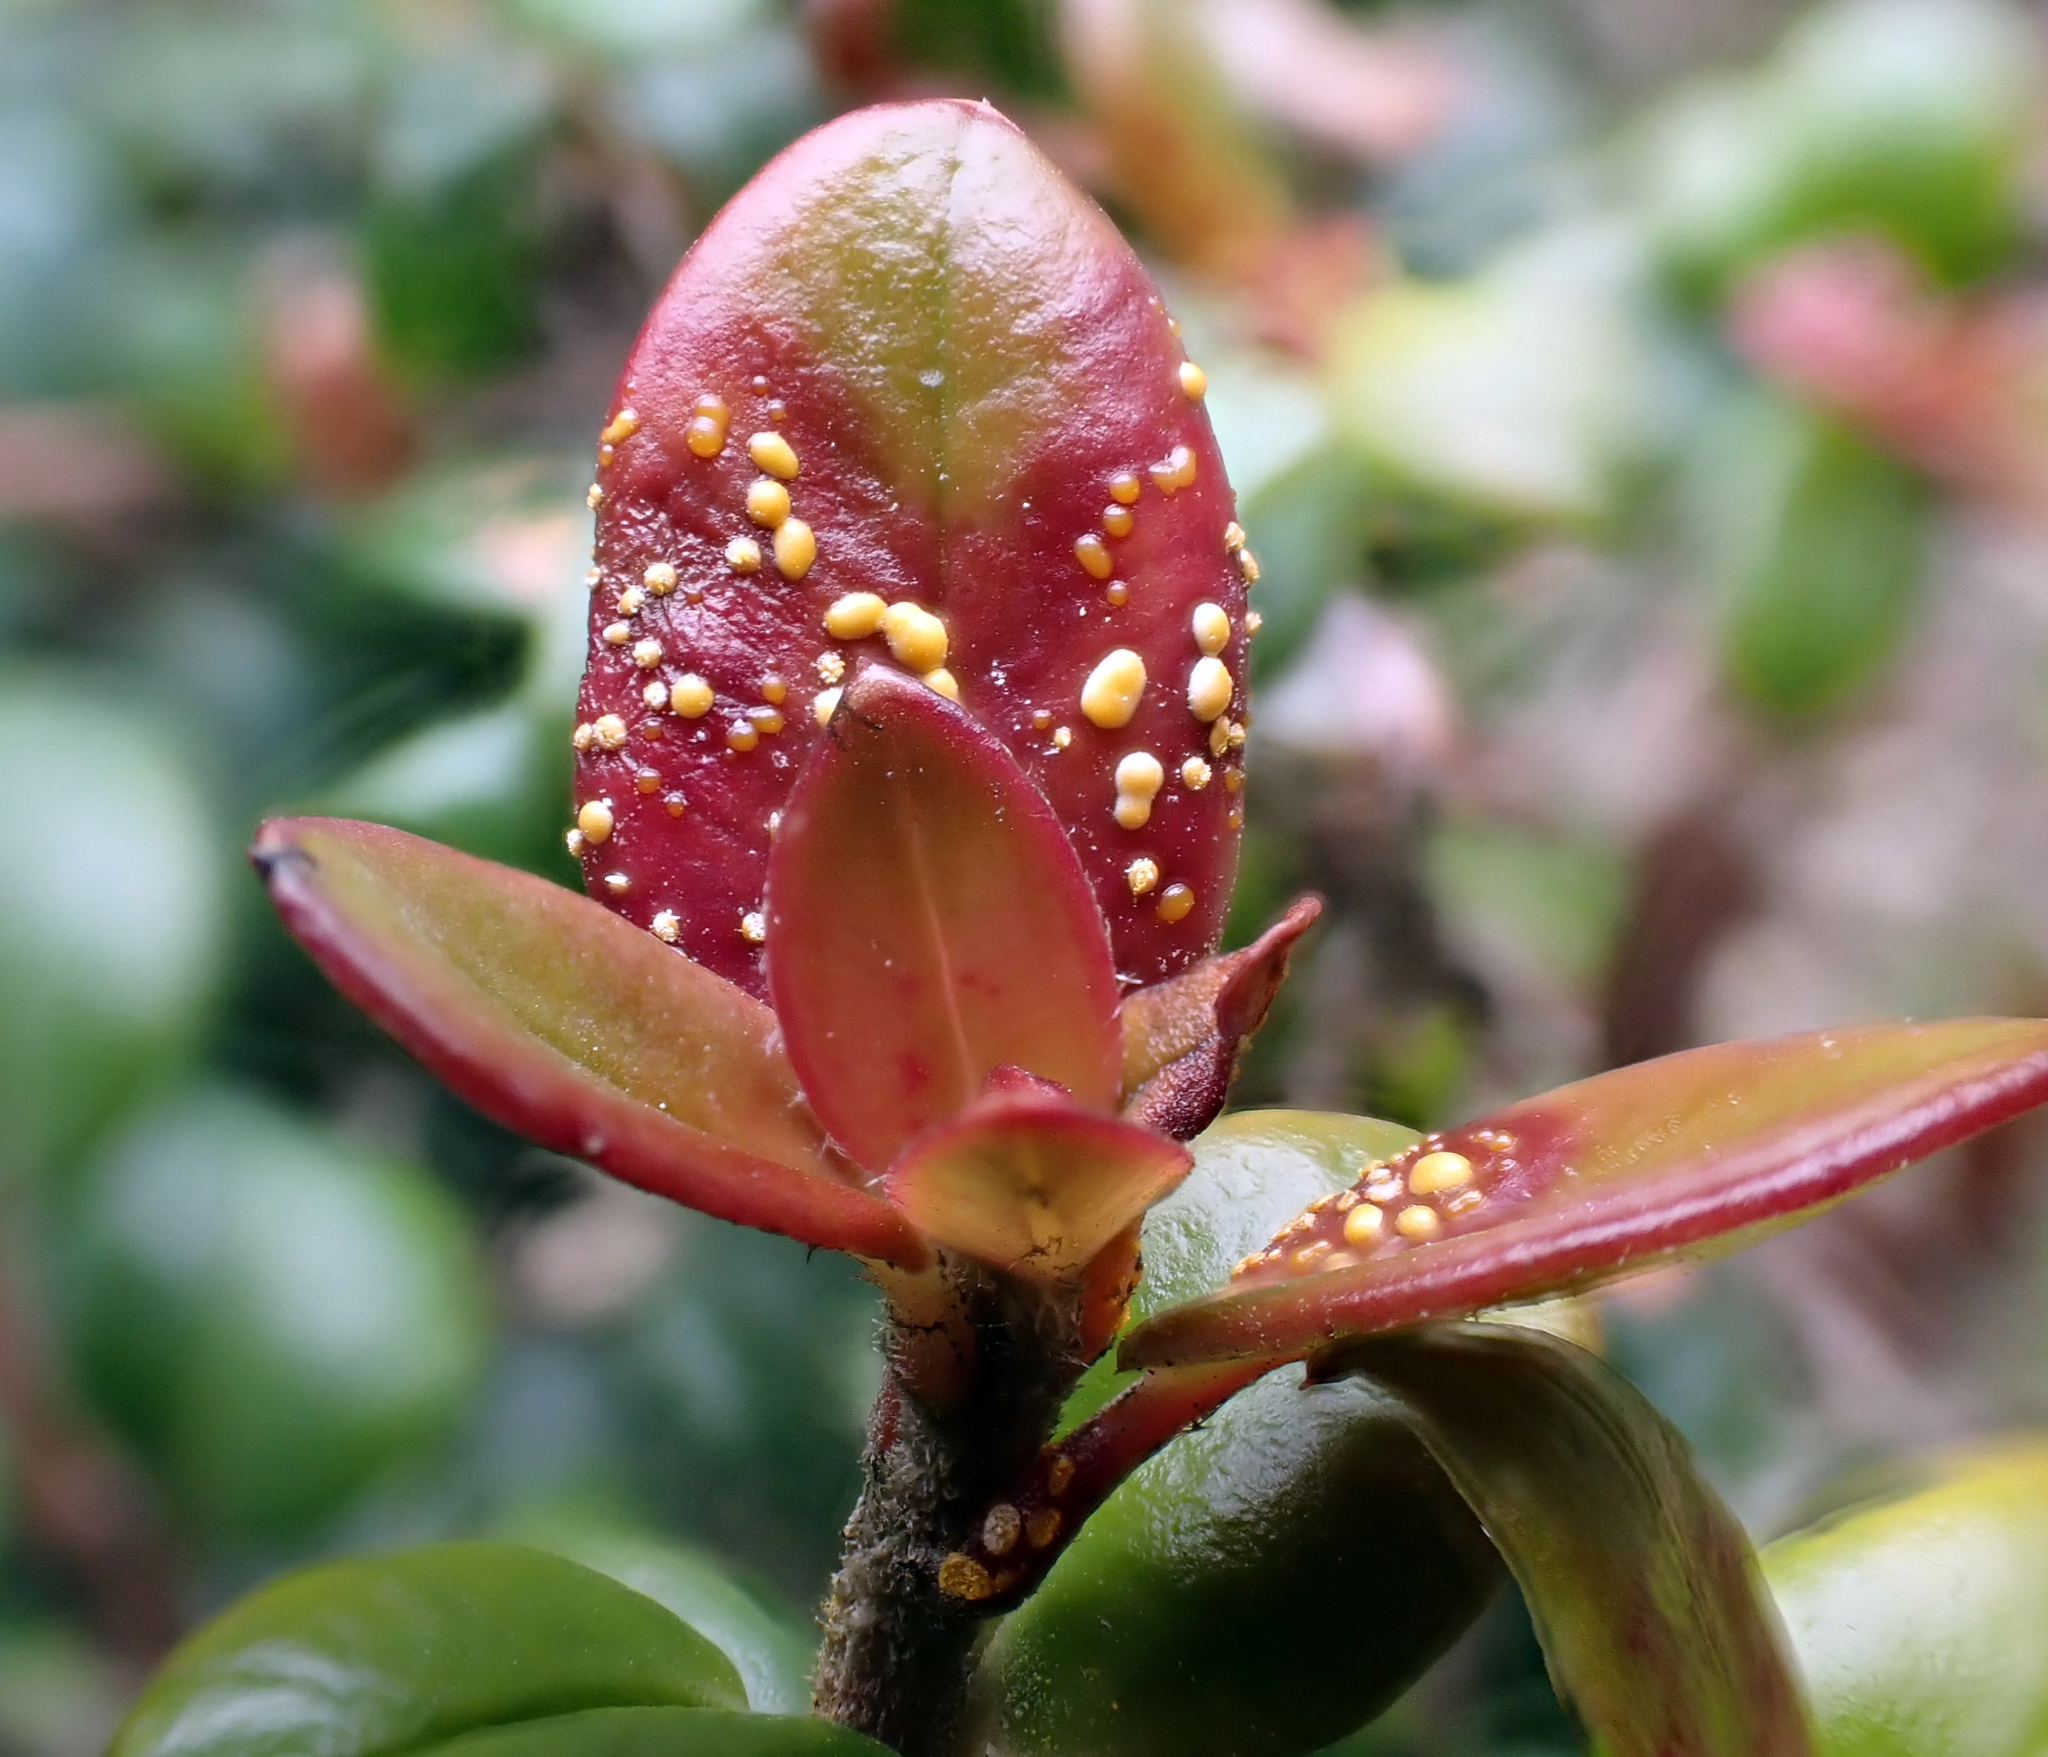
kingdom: Fungi
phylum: Basidiomycota
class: Pucciniomycetes
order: Pucciniales
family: Sphaerophragmiaceae
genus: Austropuccinia
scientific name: Austropuccinia psidii
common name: Myrtle rust
